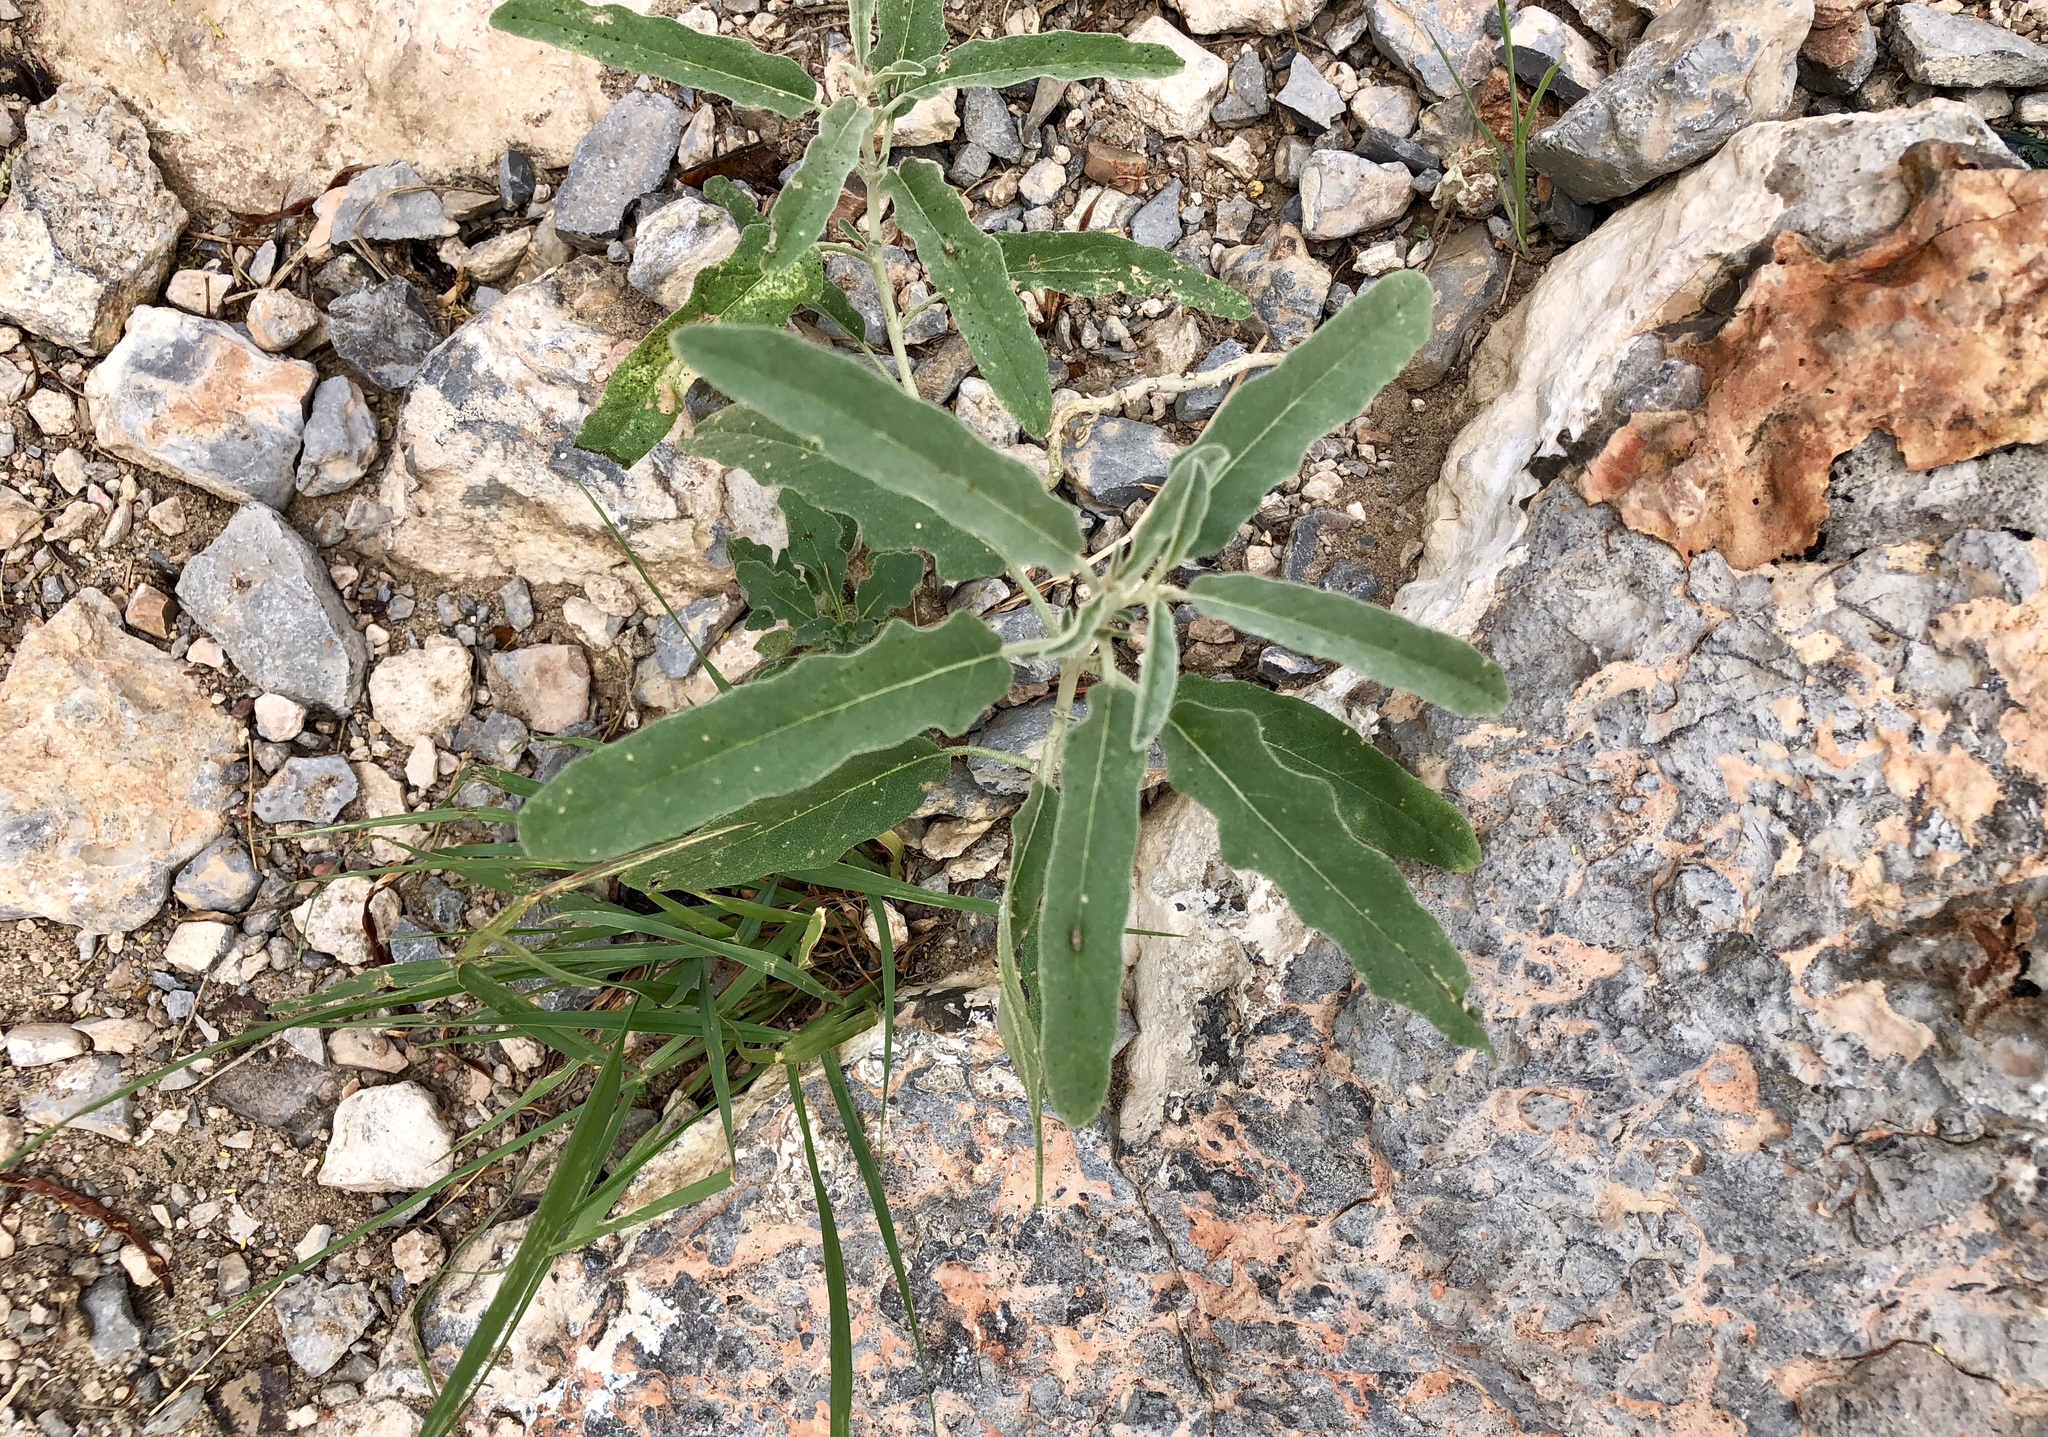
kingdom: Plantae
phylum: Tracheophyta
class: Magnoliopsida
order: Solanales
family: Solanaceae
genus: Solanum
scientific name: Solanum elaeagnifolium
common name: Silverleaf nightshade
